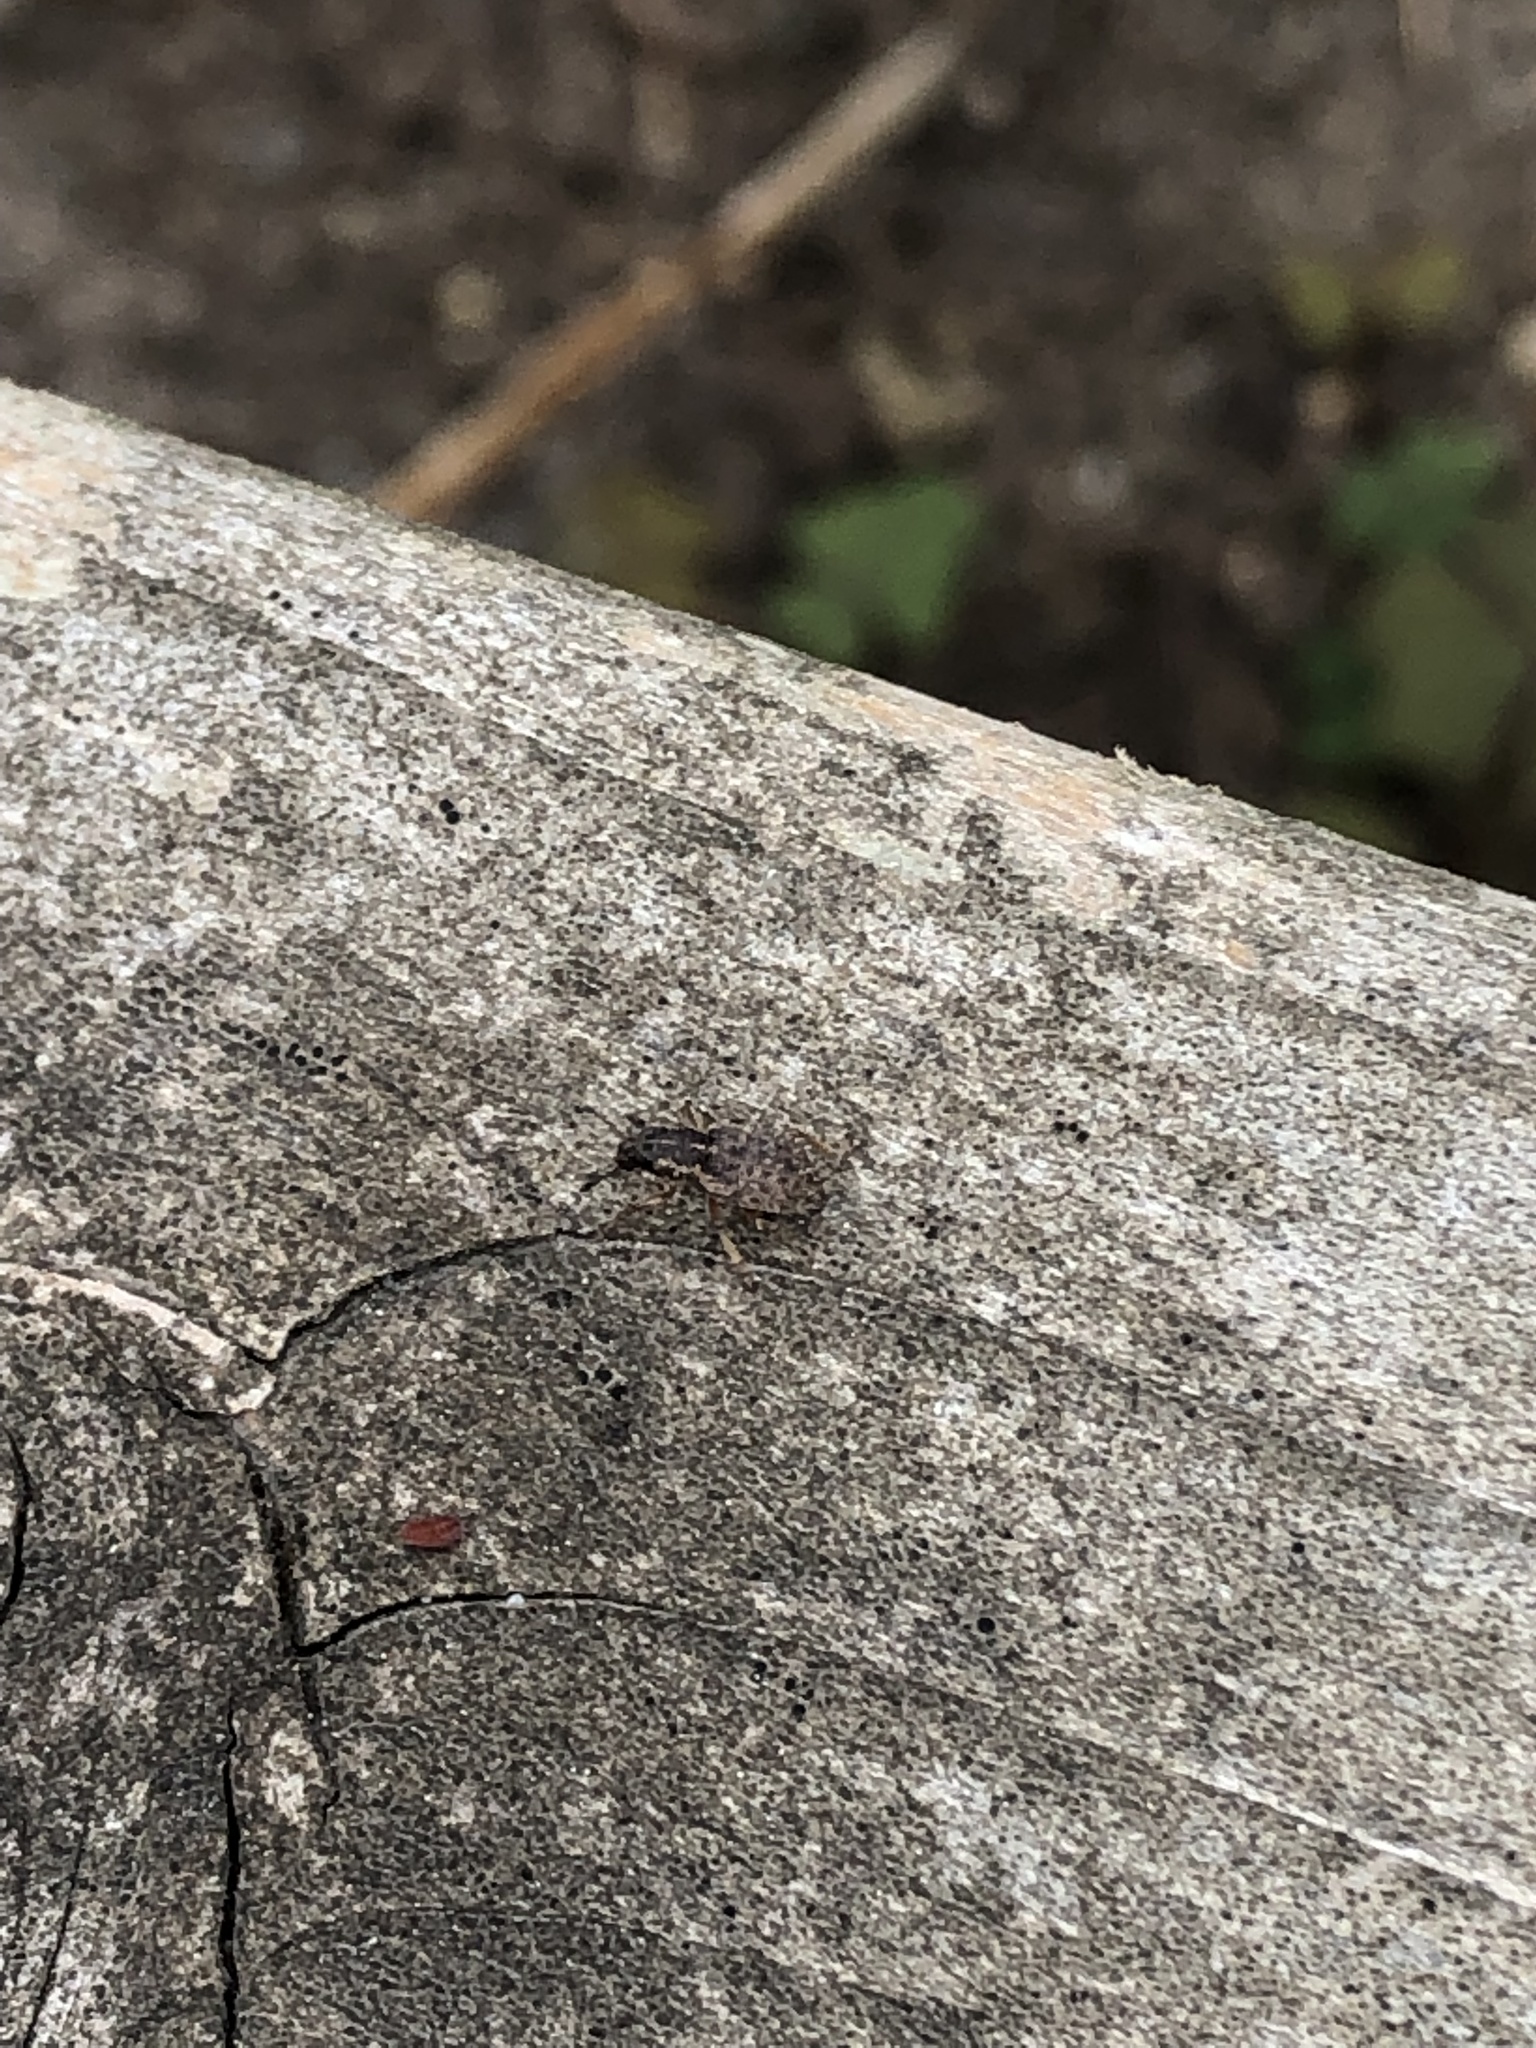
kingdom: Animalia
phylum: Arthropoda
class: Insecta
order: Coleoptera
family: Curculionidae
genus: Sitona
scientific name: Sitona hispidulus
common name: Clover weevil
